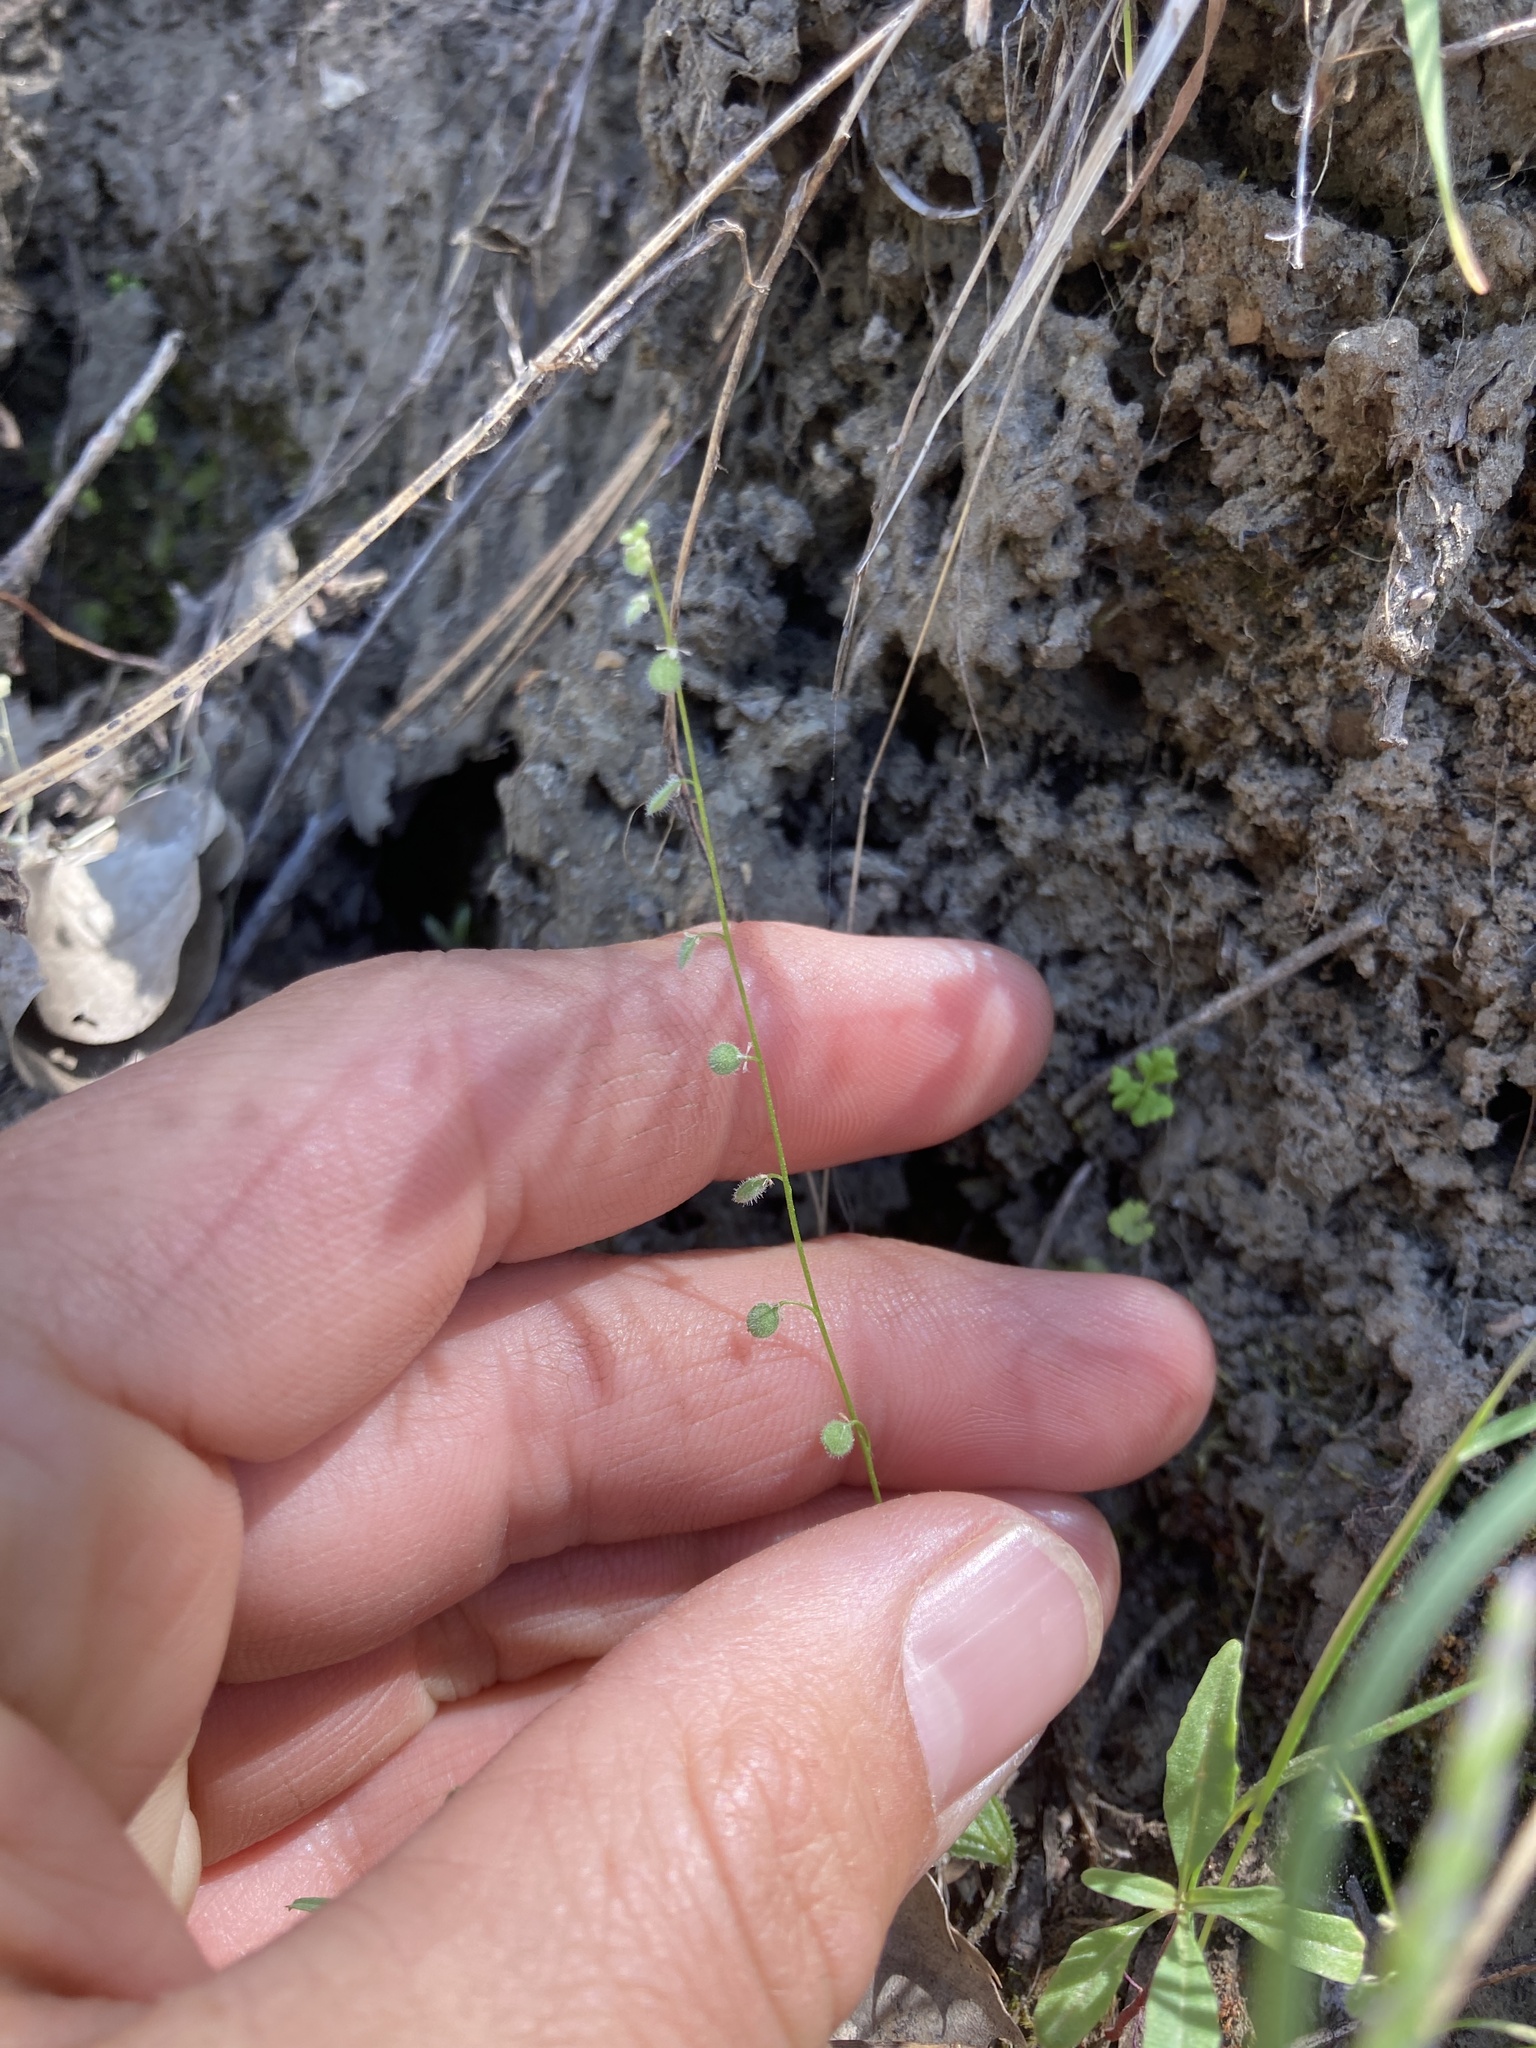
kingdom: Plantae
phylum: Tracheophyta
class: Magnoliopsida
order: Brassicales
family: Brassicaceae
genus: Athysanus
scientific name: Athysanus pusillus
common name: Common sandweed
